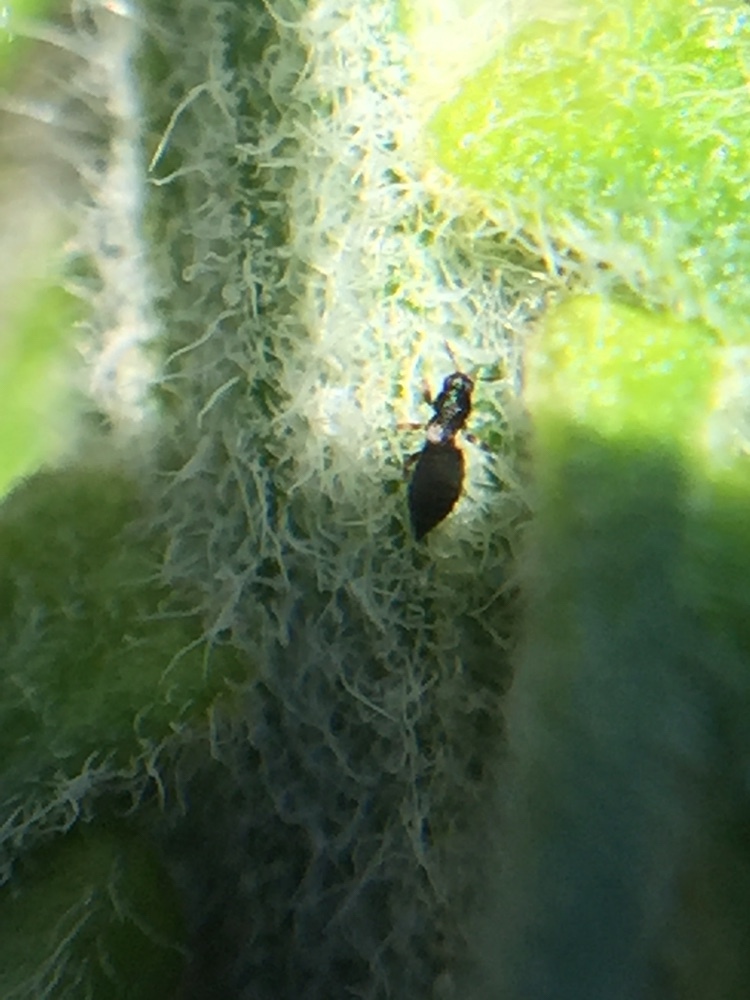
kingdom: Animalia
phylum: Arthropoda
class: Insecta
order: Thysanoptera
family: Thripidae
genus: Sericothrips
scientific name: Sericothrips staphylinus
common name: Gorse thrips
